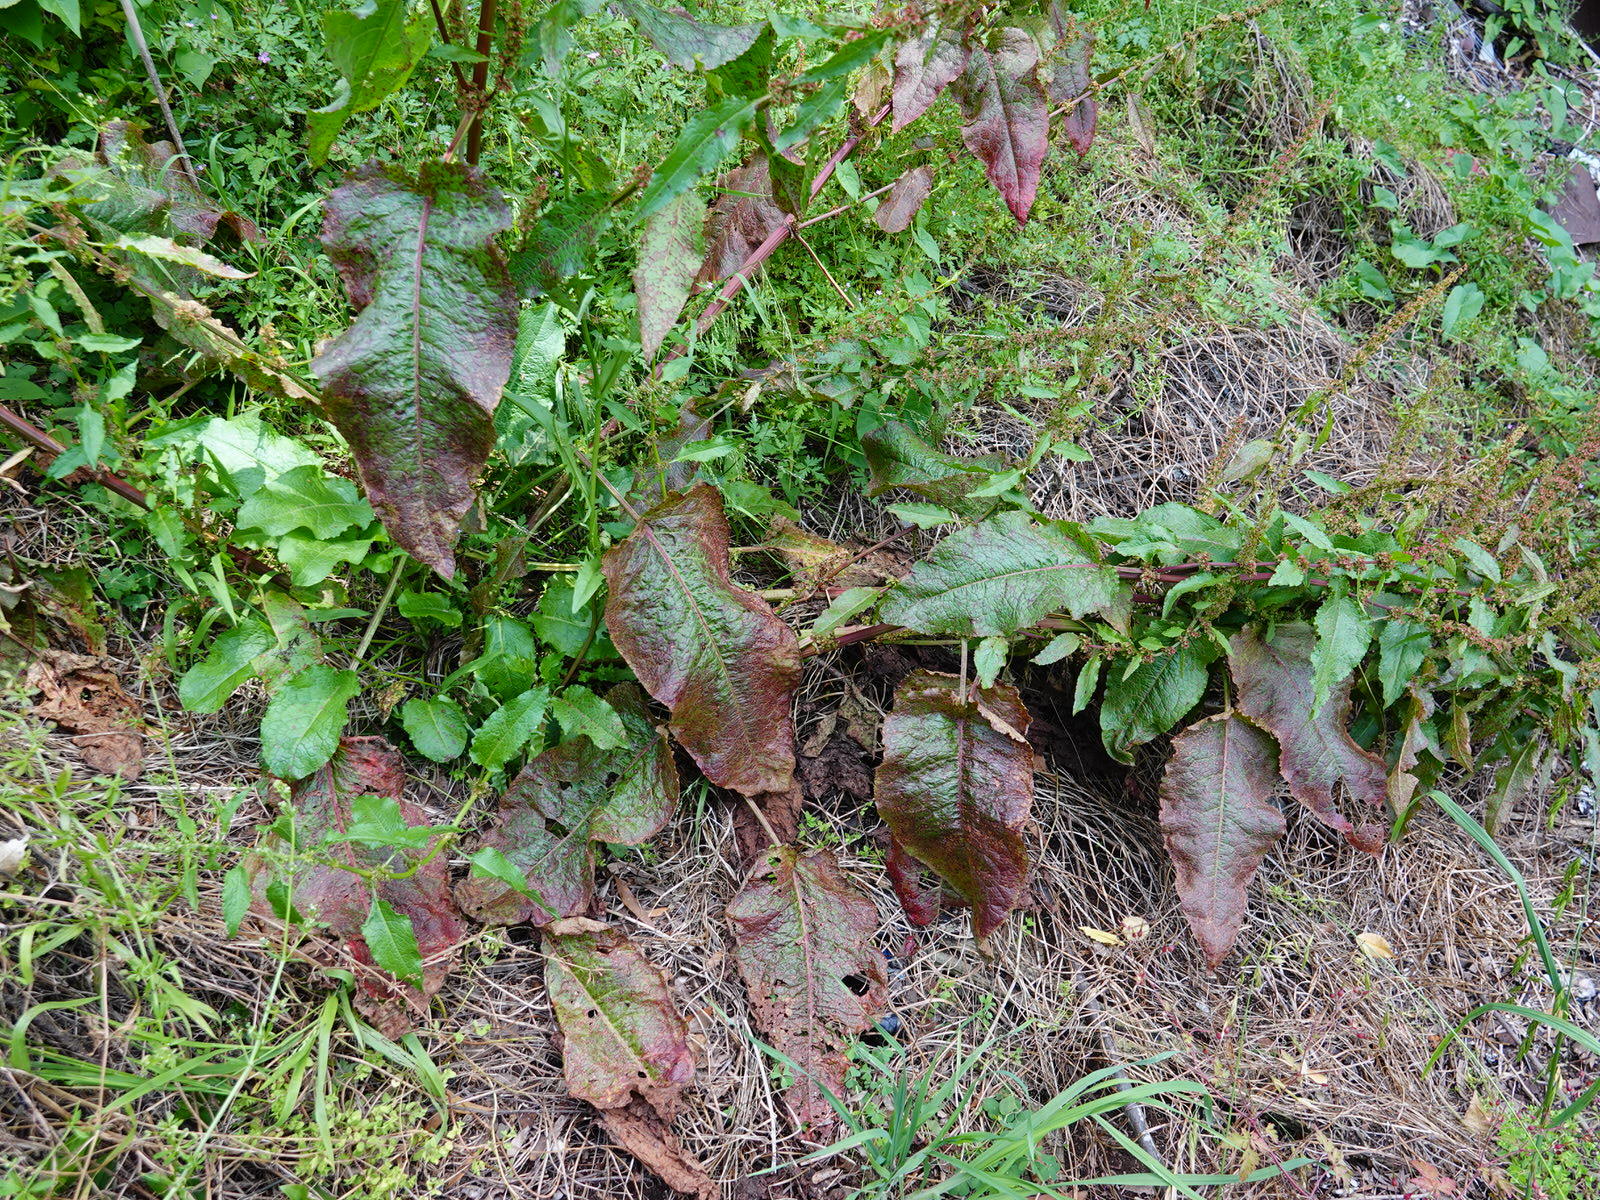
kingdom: Plantae
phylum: Tracheophyta
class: Magnoliopsida
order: Caryophyllales
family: Polygonaceae
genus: Rumex
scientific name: Rumex obtusifolius
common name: Bitter dock
